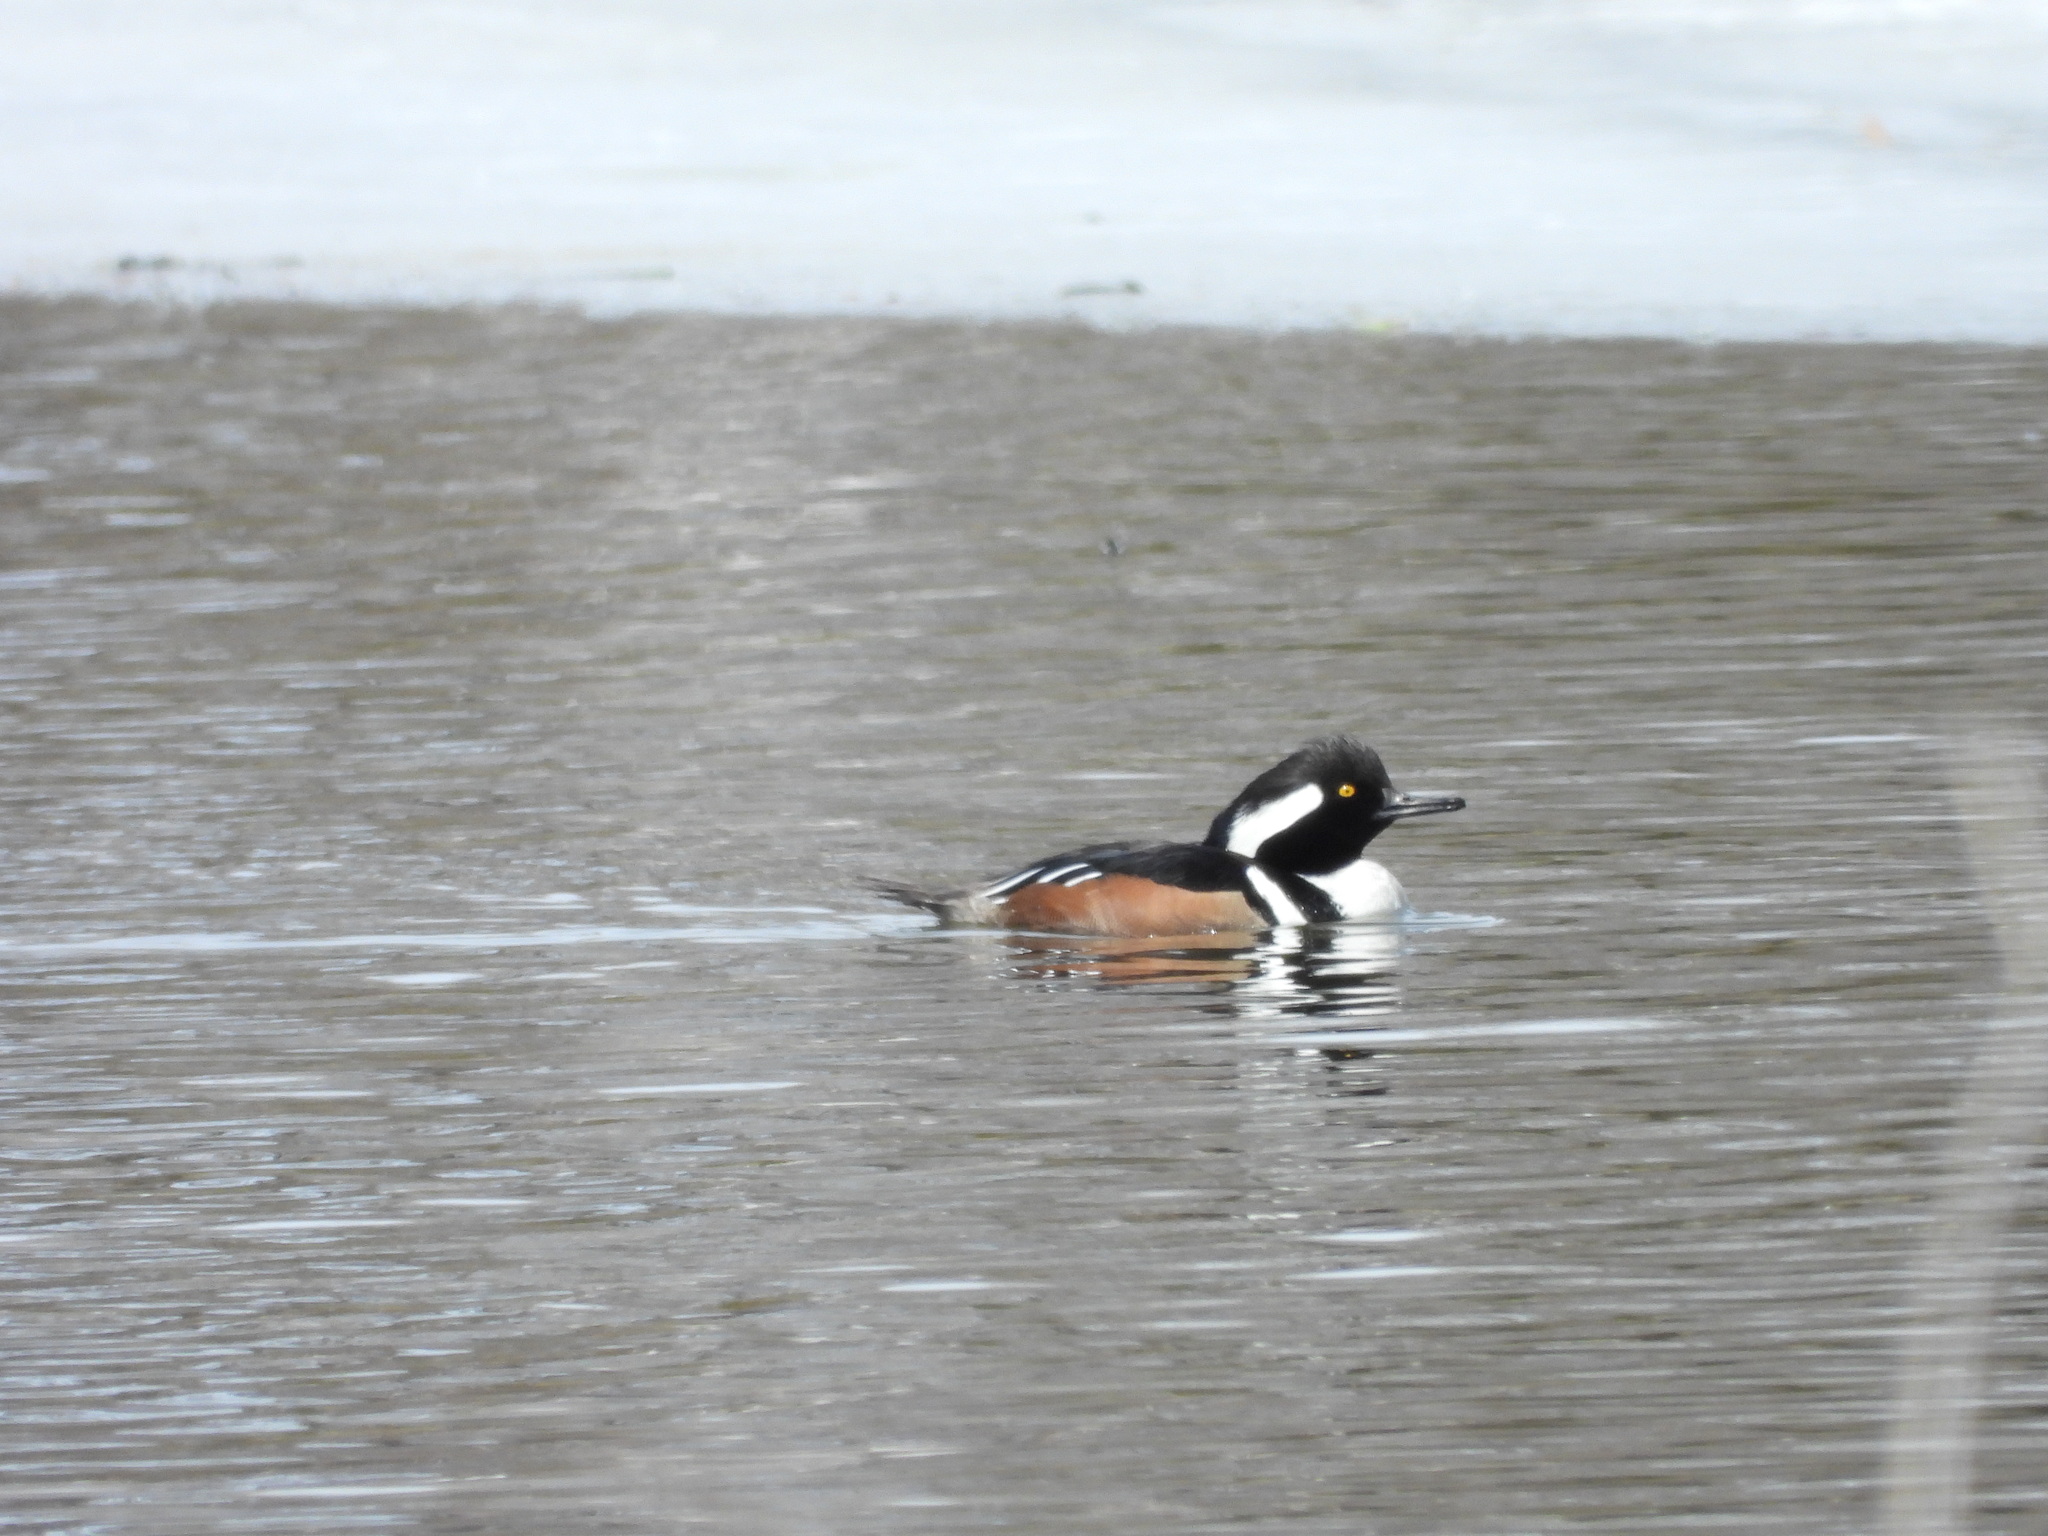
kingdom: Animalia
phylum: Chordata
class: Aves
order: Anseriformes
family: Anatidae
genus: Lophodytes
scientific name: Lophodytes cucullatus
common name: Hooded merganser
